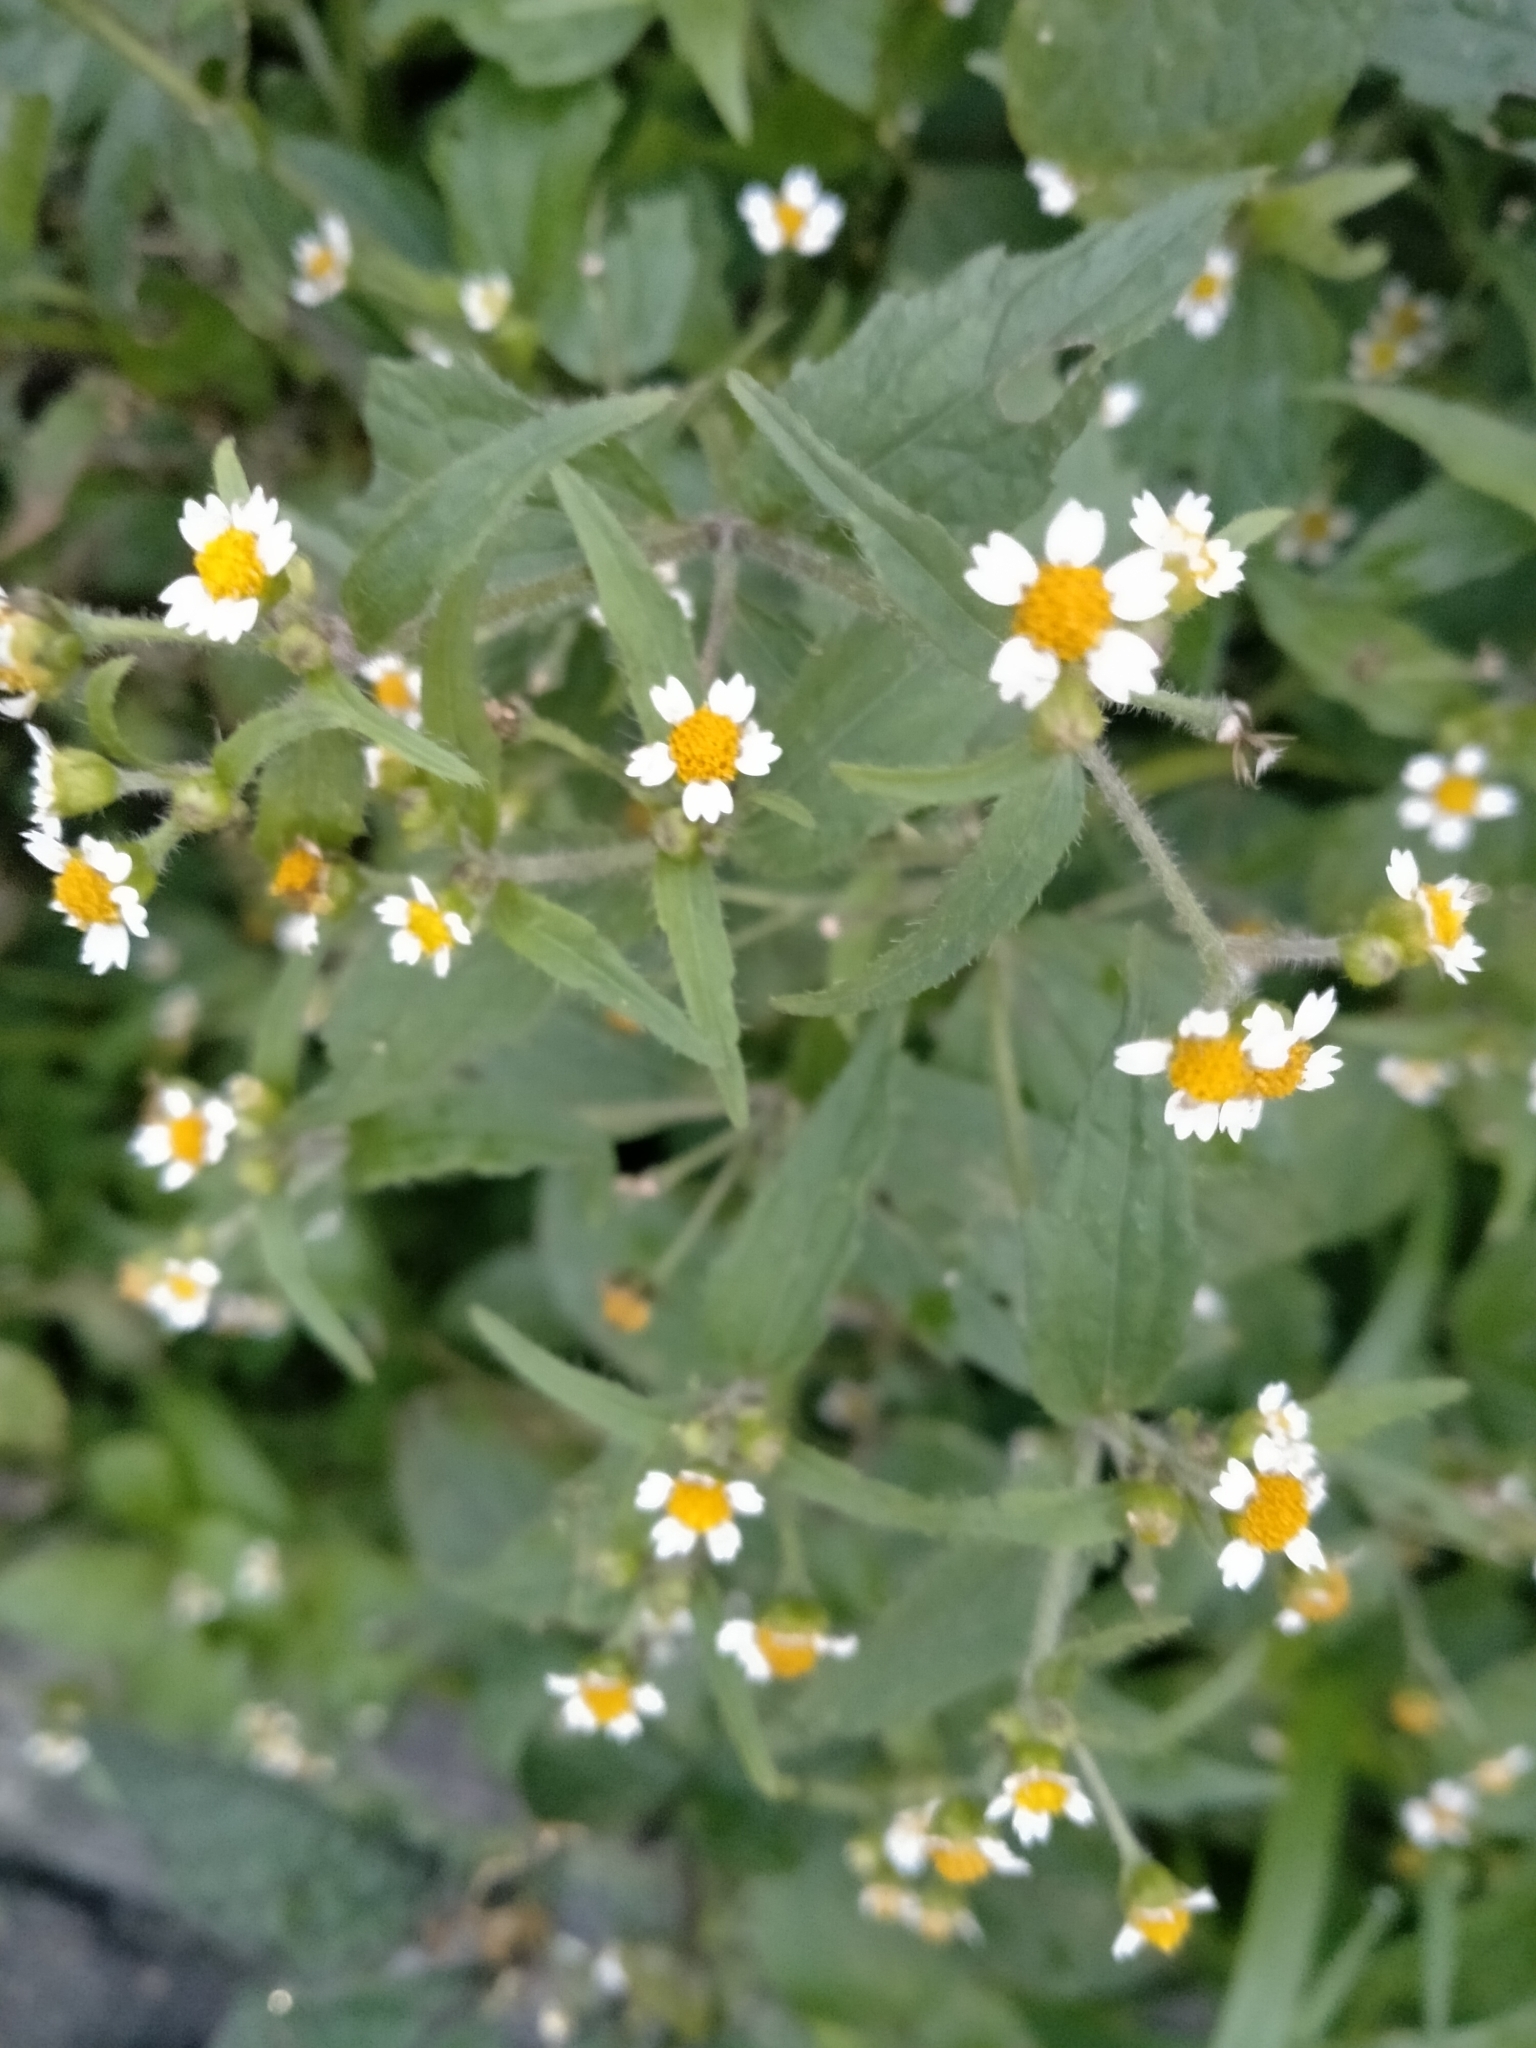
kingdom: Plantae
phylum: Tracheophyta
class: Magnoliopsida
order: Asterales
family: Asteraceae
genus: Galinsoga
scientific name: Galinsoga quadriradiata
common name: Shaggy soldier
